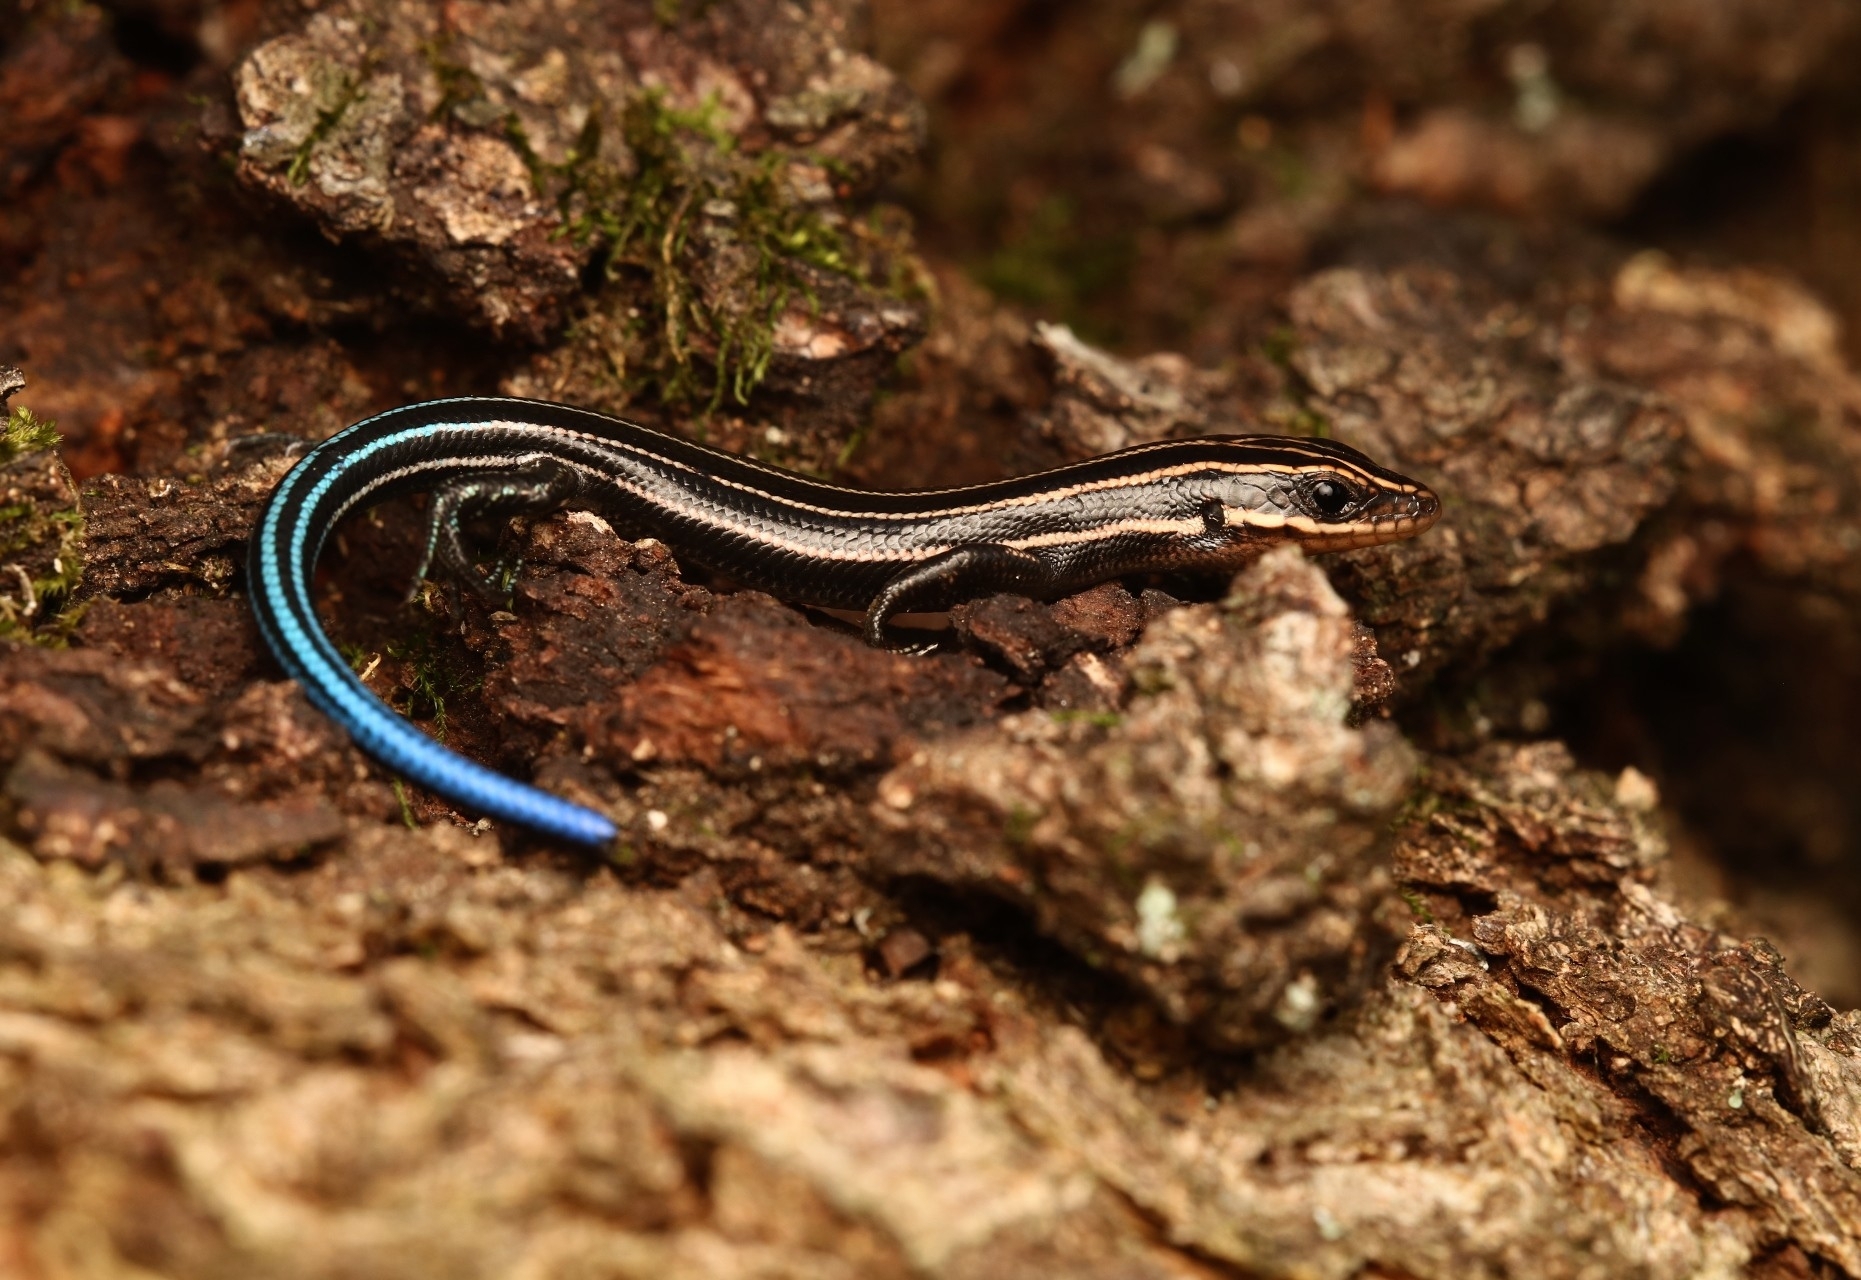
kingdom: Animalia
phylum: Chordata
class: Squamata
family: Scincidae
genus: Plestiodon
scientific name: Plestiodon fasciatus
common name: Five-lined skink
